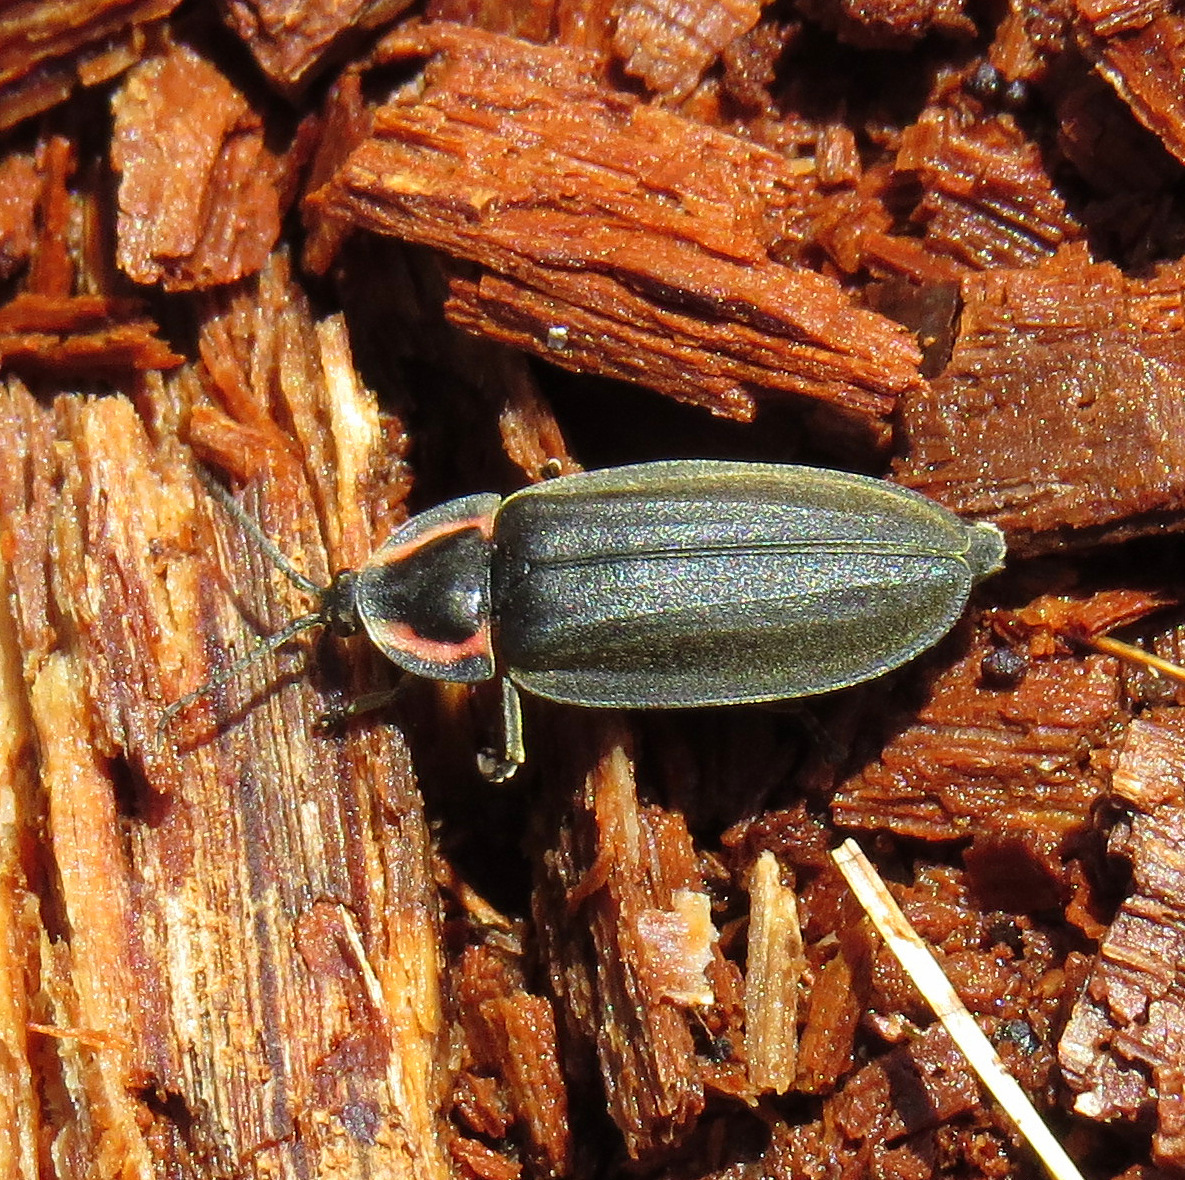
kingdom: Animalia
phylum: Arthropoda
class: Insecta
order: Coleoptera
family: Lampyridae
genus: Photinus
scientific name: Photinus corrusca
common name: Winter firefly
